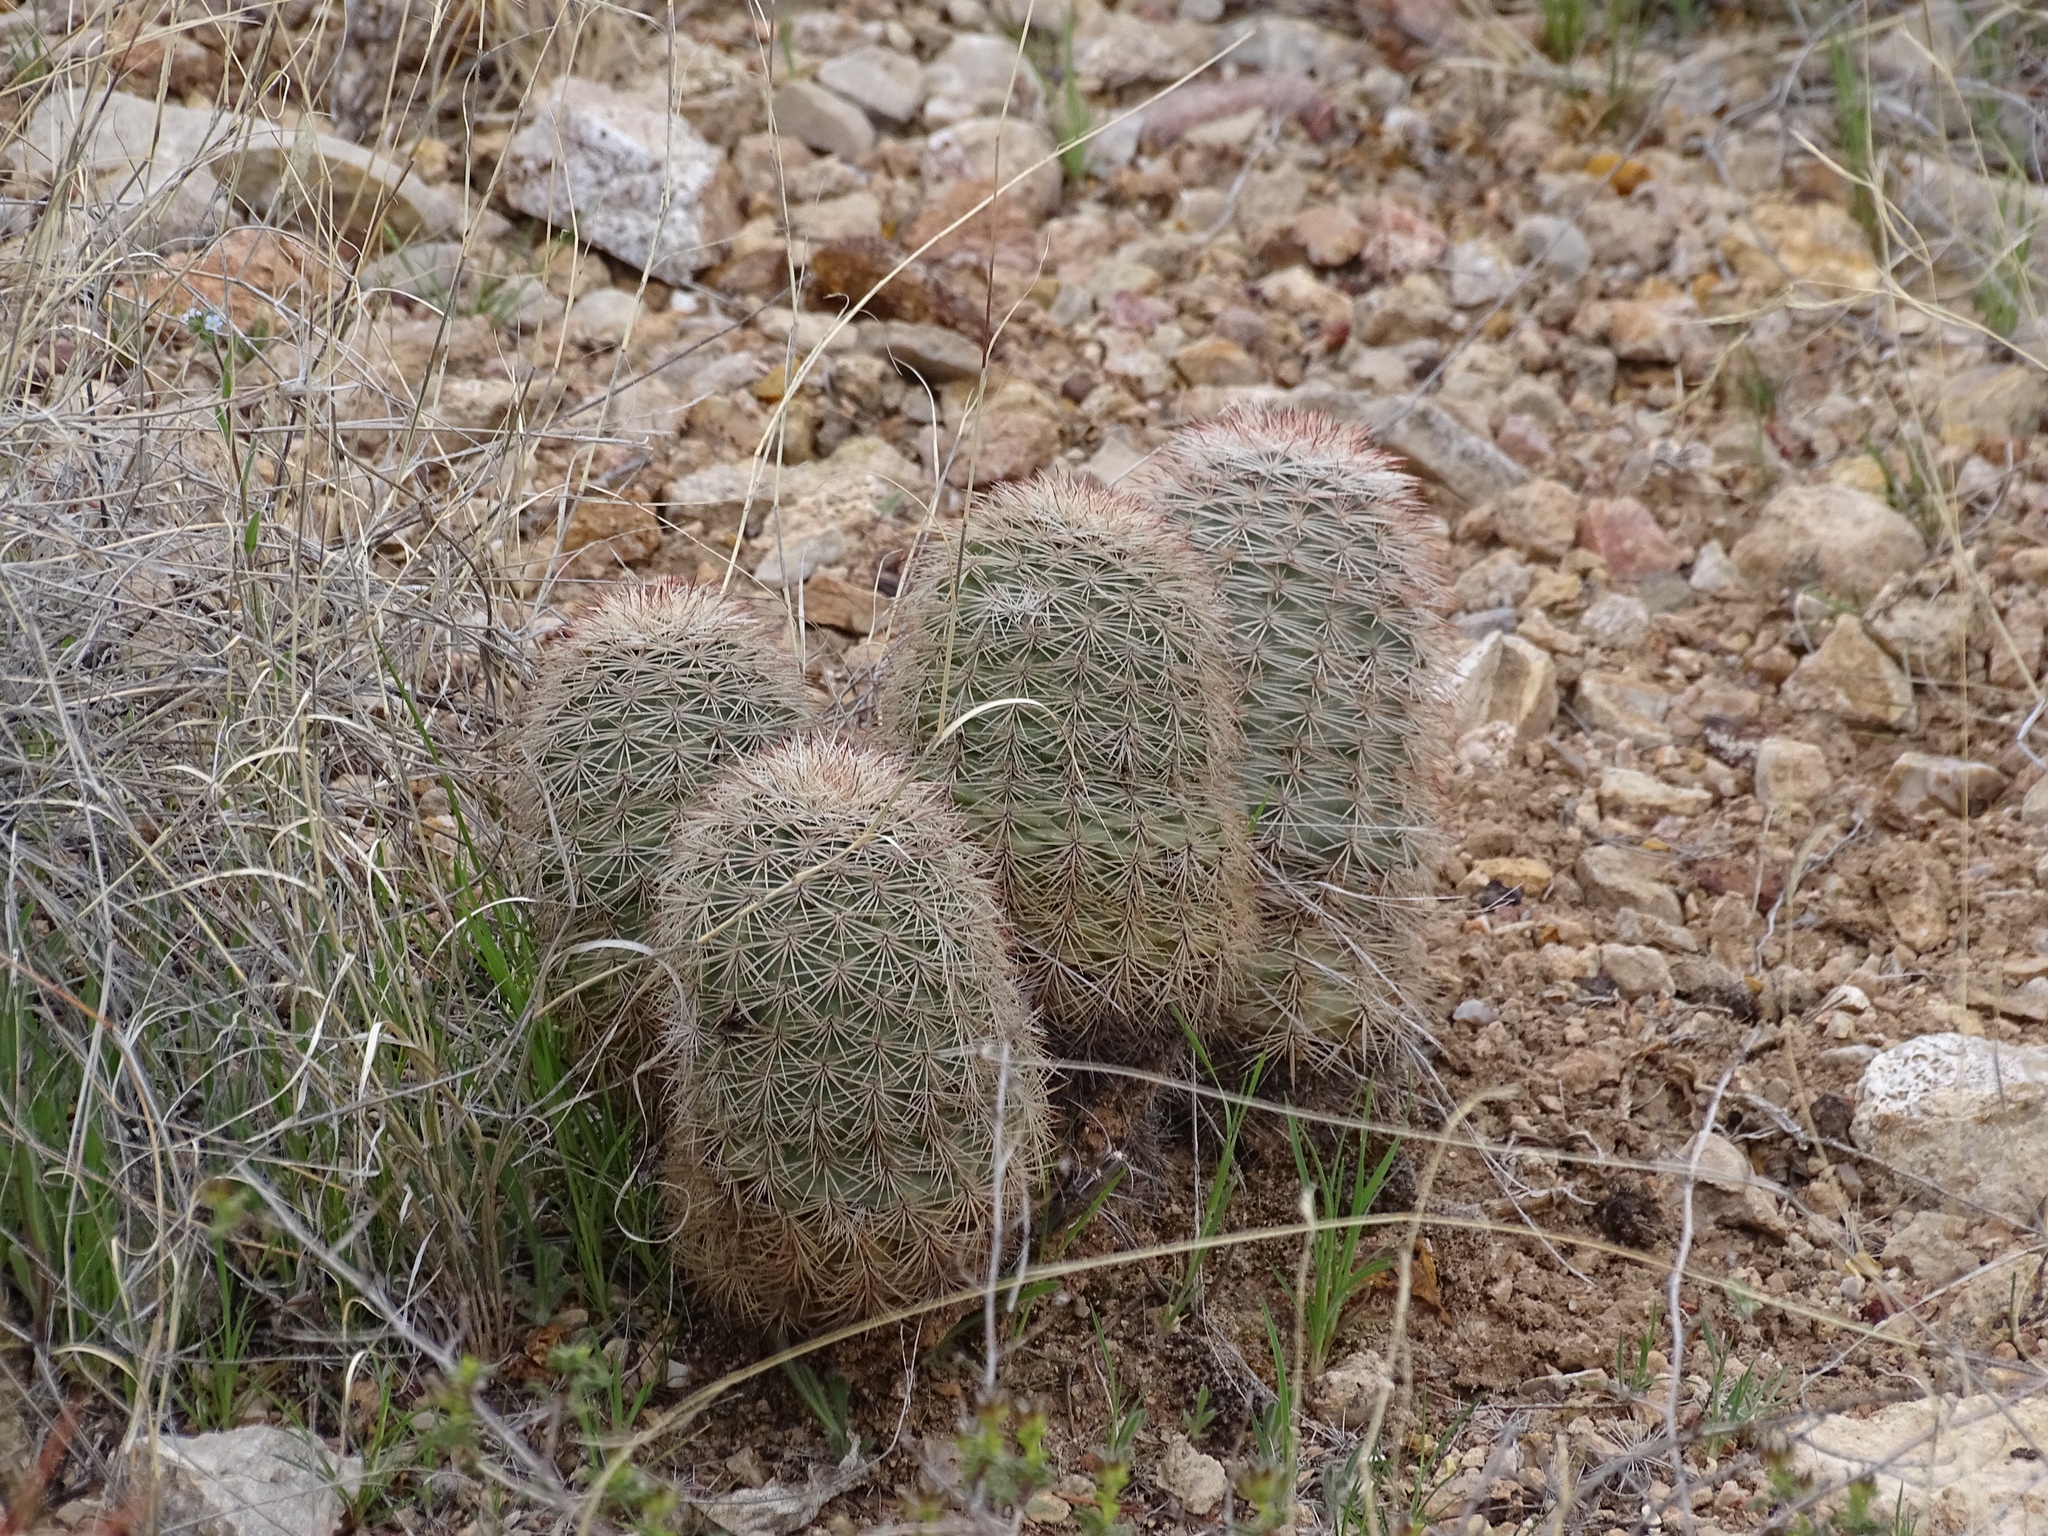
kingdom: Plantae
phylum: Tracheophyta
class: Magnoliopsida
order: Caryophyllales
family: Cactaceae
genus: Echinocereus
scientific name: Echinocereus dasyacanthus
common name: Spiny hedgehog cactus
